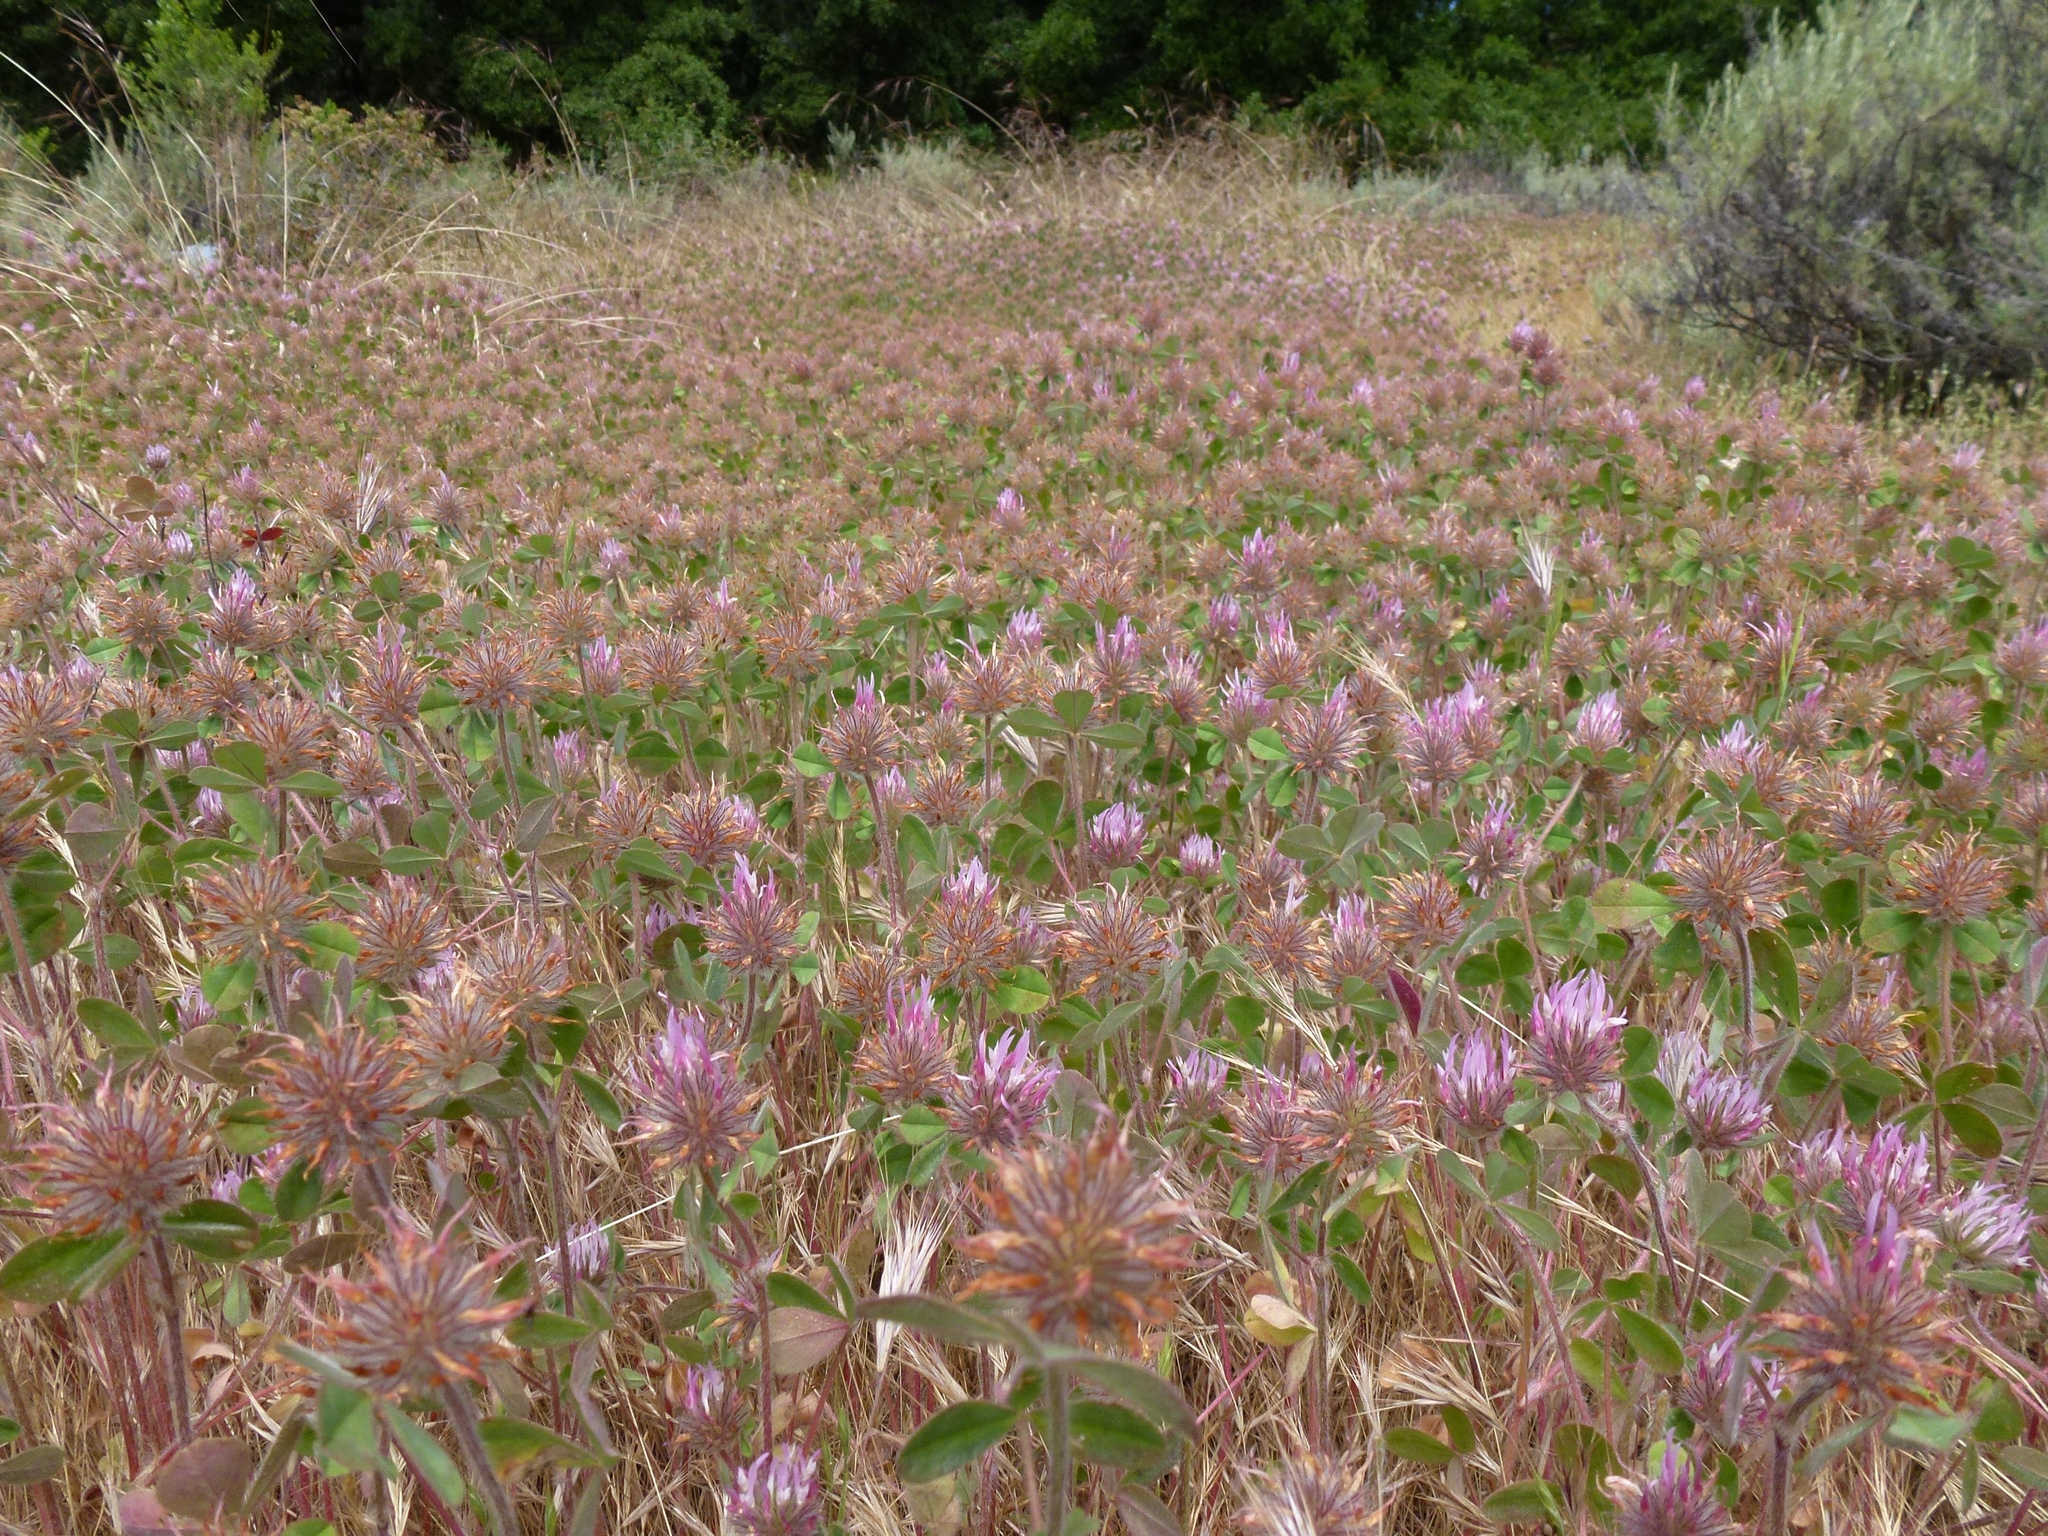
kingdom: Plantae
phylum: Tracheophyta
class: Magnoliopsida
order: Fabales
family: Fabaceae
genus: Trifolium
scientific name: Trifolium hirtum
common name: Rose clover
